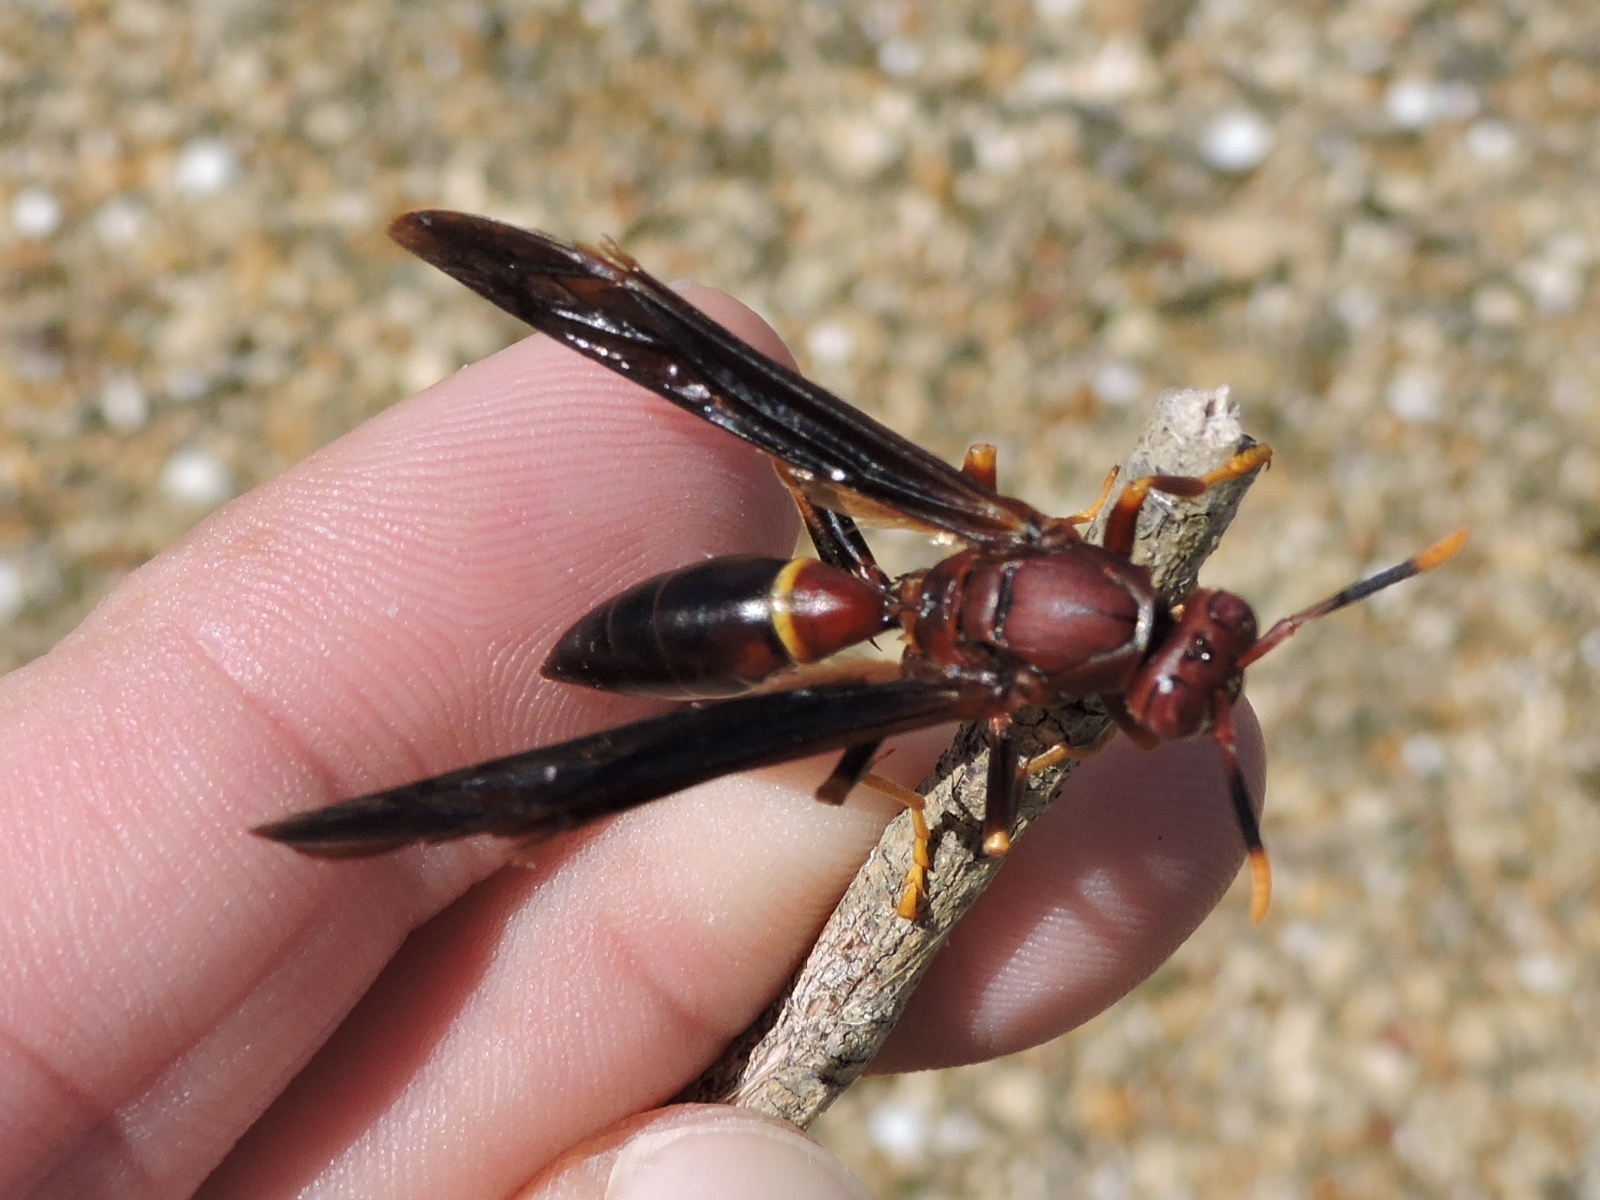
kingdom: Animalia
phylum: Arthropoda
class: Insecta
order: Hymenoptera
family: Eumenidae
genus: Polistes
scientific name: Polistes annularis
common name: Ringed paper wasp
